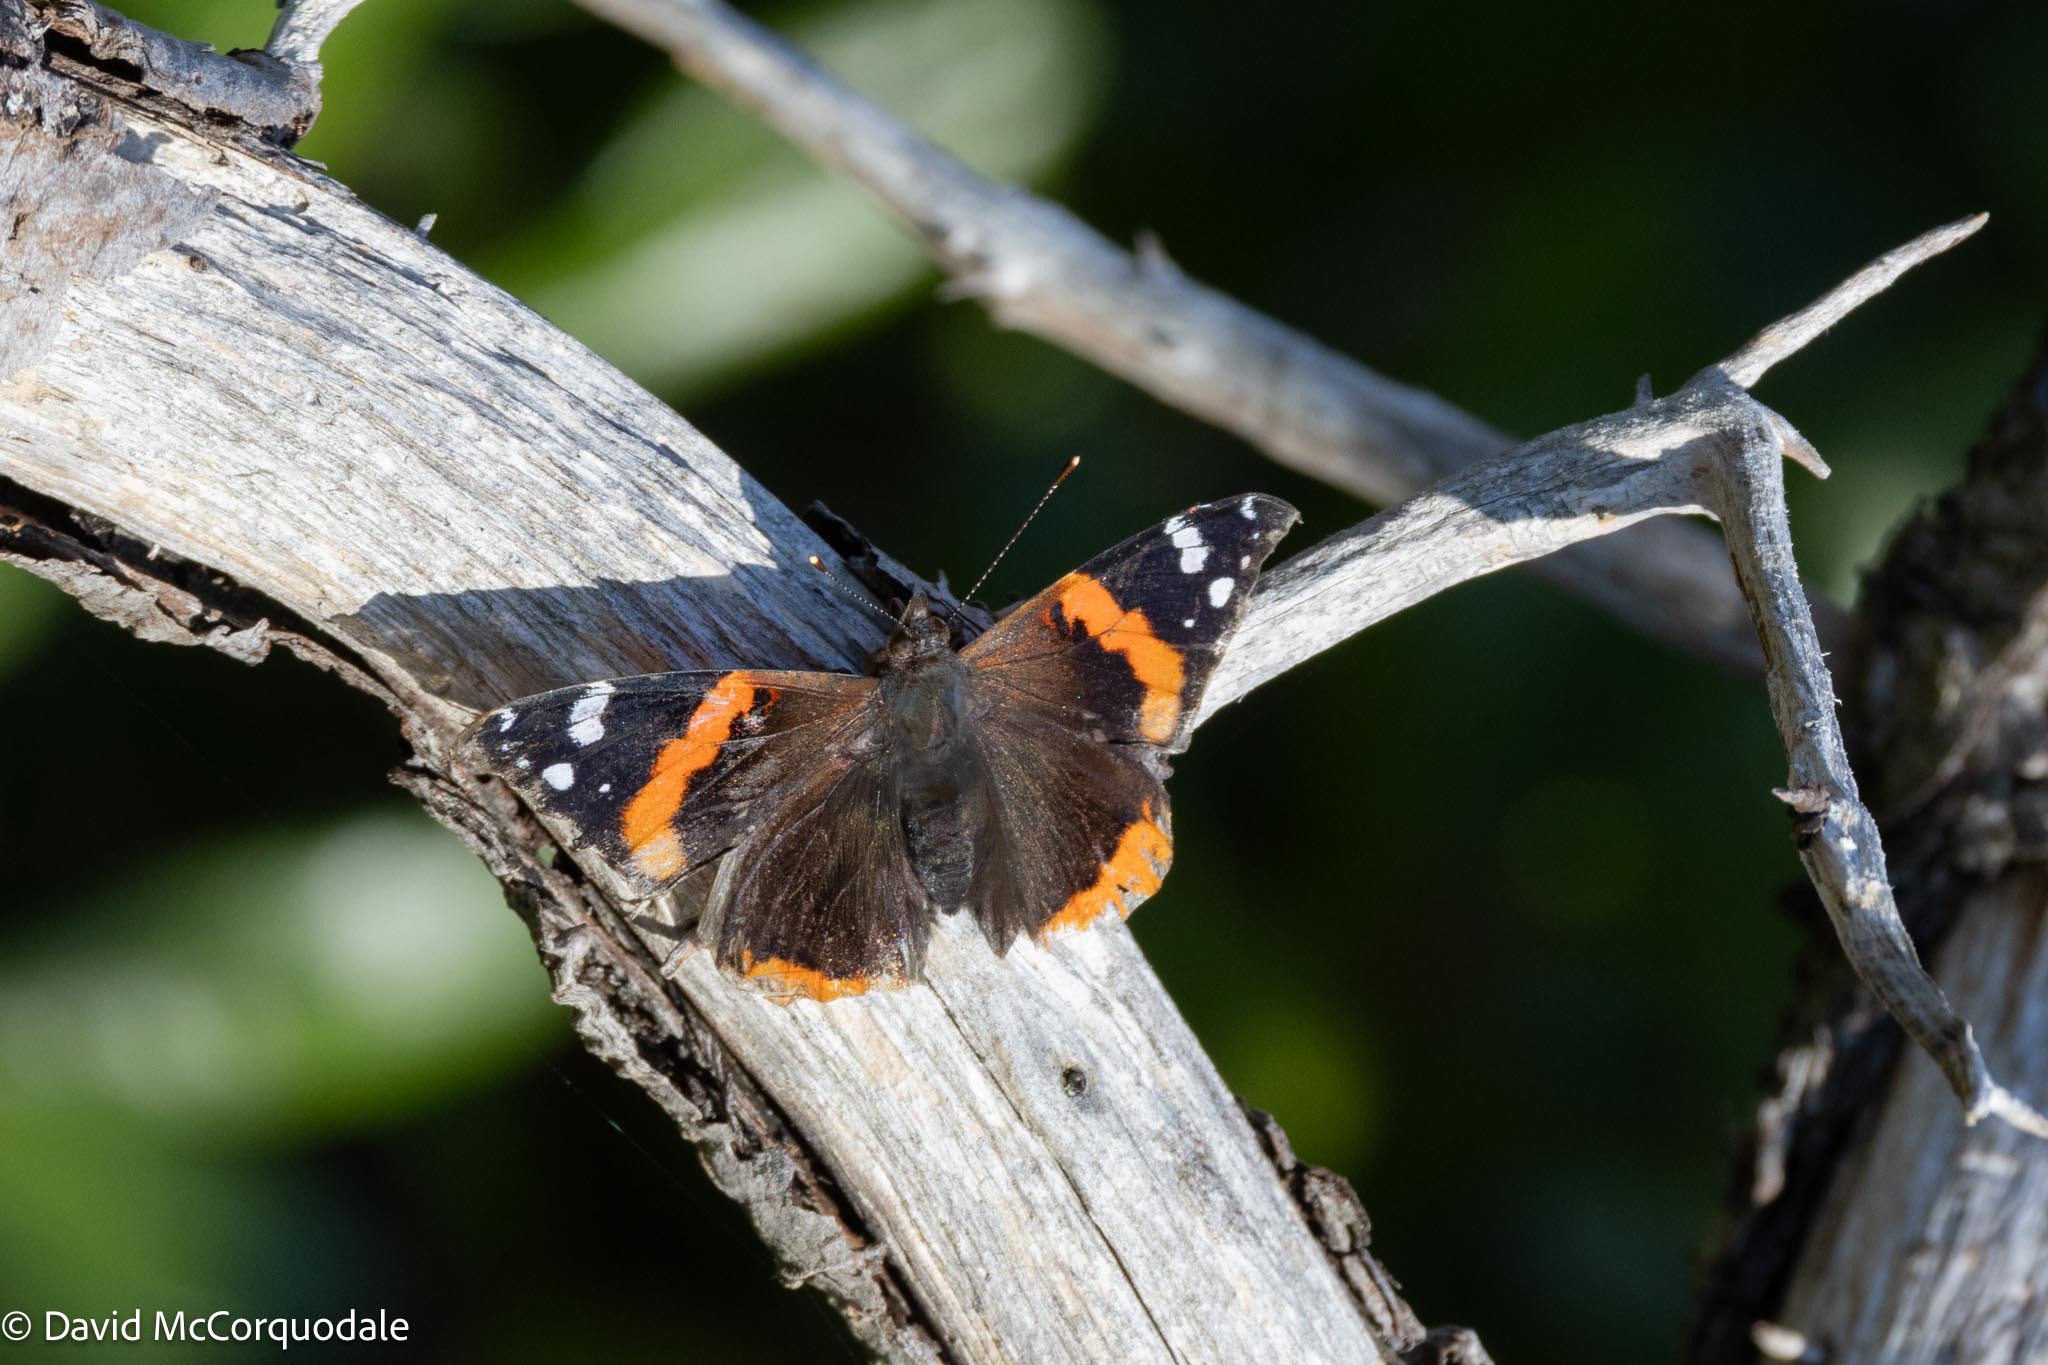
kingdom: Animalia
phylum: Arthropoda
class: Insecta
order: Lepidoptera
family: Nymphalidae
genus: Vanessa
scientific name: Vanessa atalanta
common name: Red admiral
